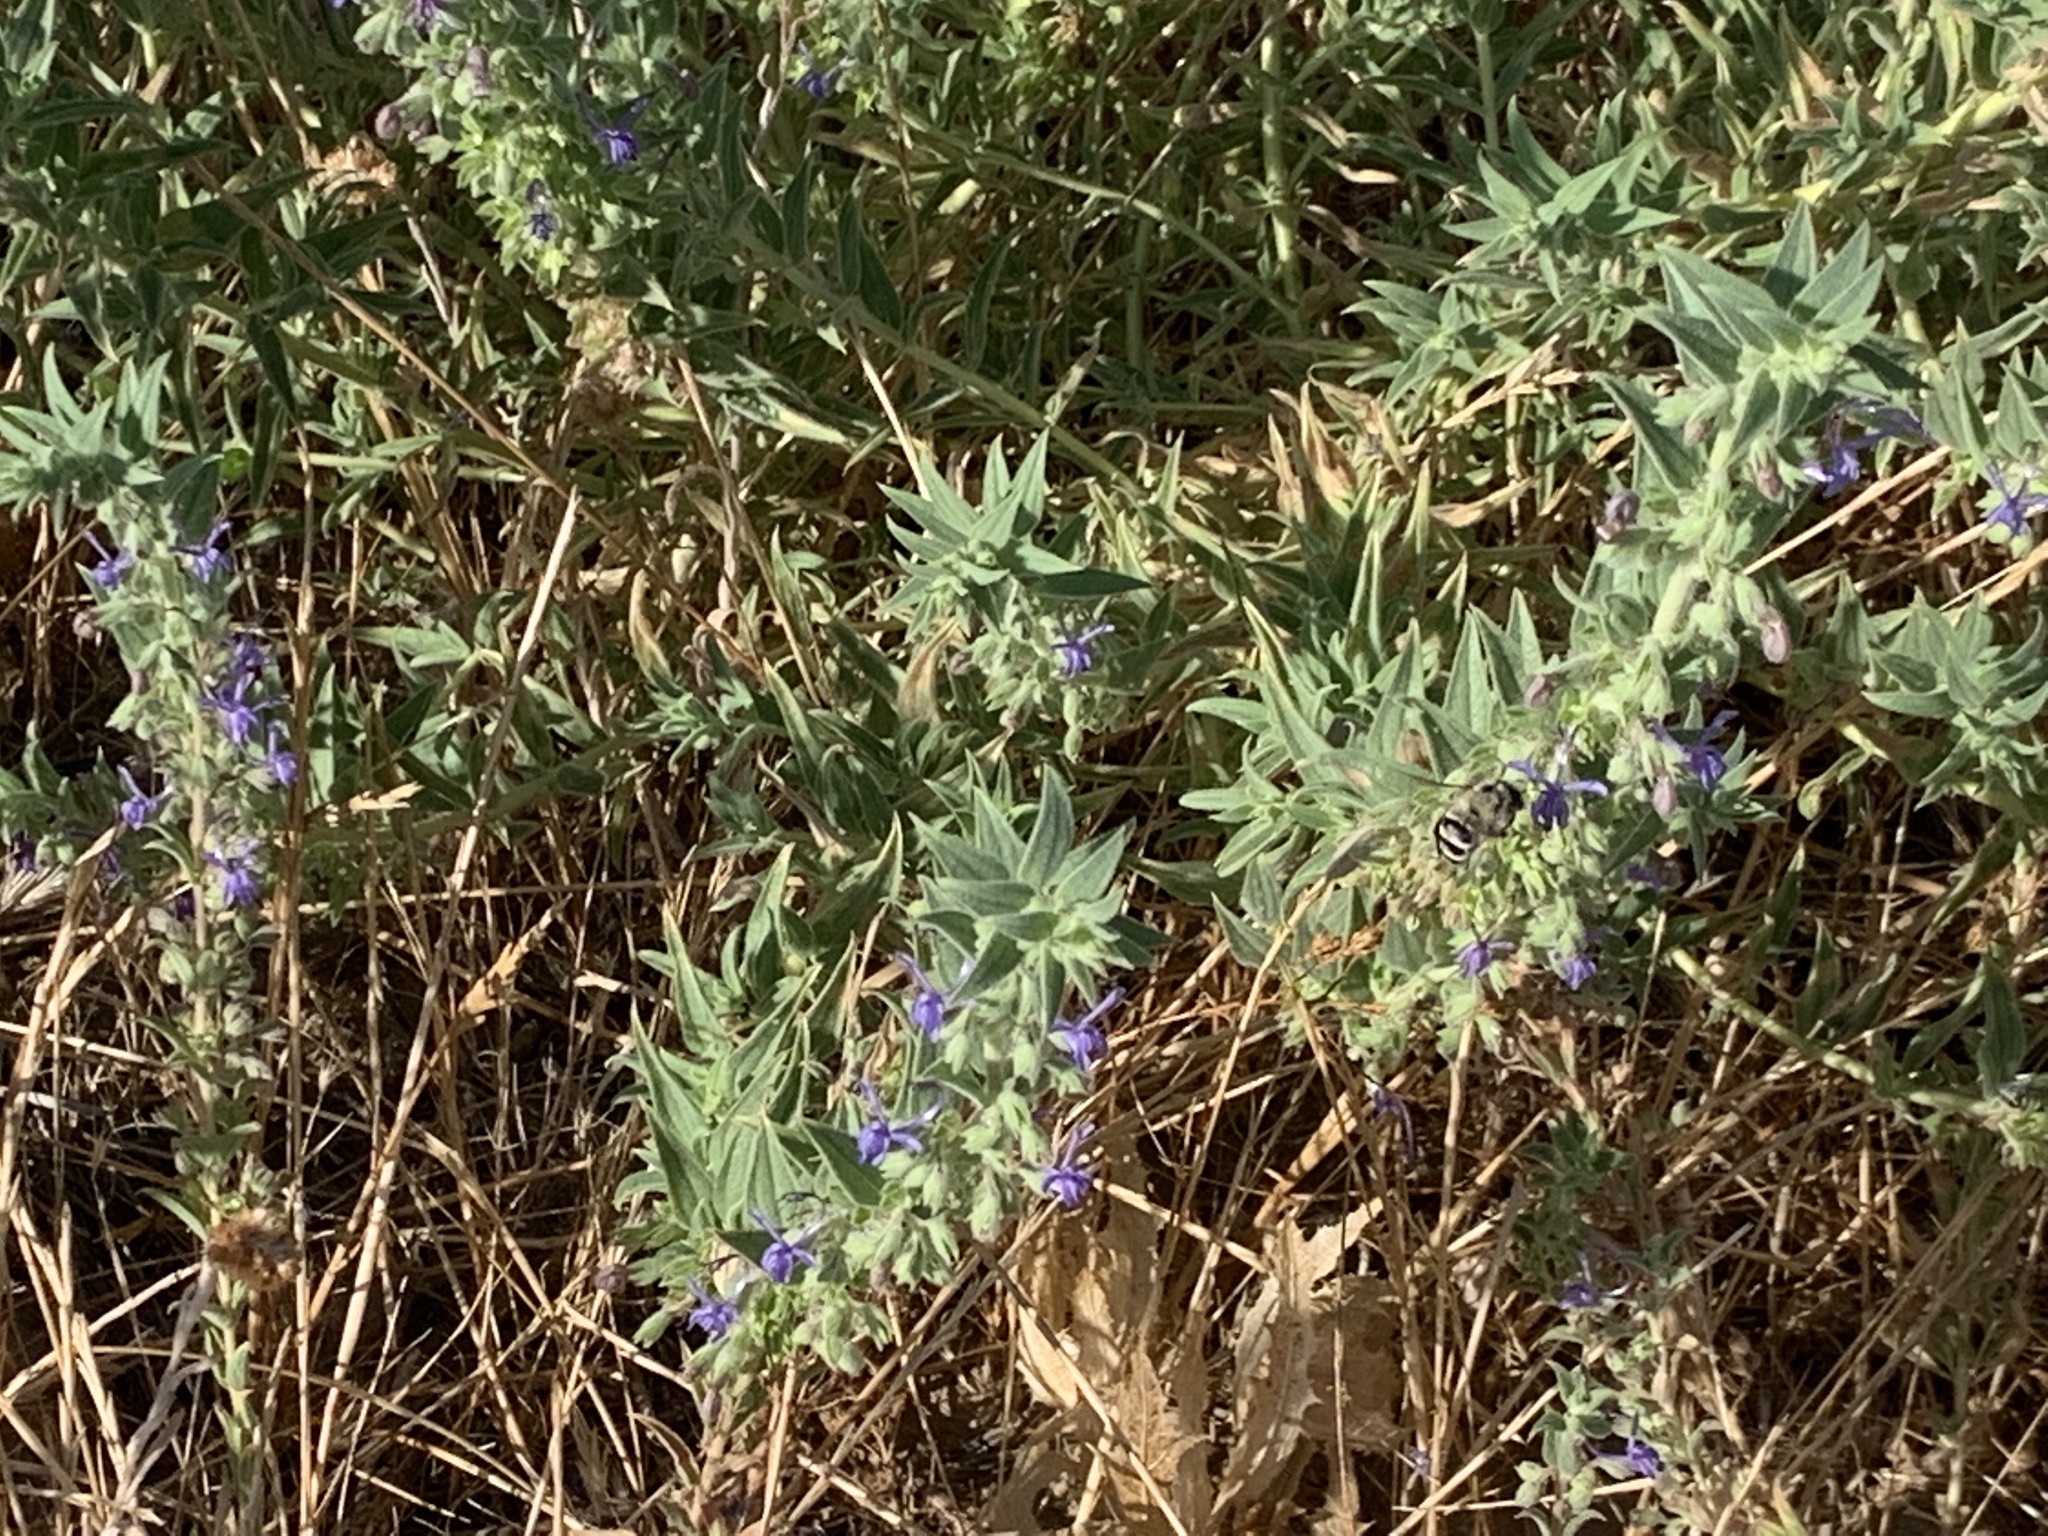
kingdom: Plantae
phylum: Tracheophyta
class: Magnoliopsida
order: Lamiales
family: Lamiaceae
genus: Trichostema
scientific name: Trichostema lanceolatum
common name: Vinegar-weed
